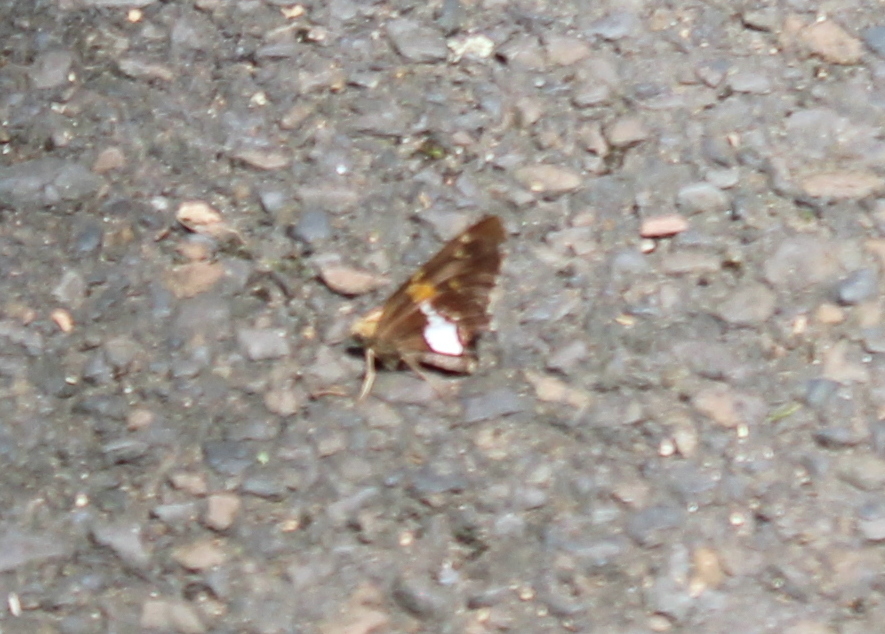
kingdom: Animalia
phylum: Arthropoda
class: Insecta
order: Lepidoptera
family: Hesperiidae
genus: Epargyreus
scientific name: Epargyreus clarus
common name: Silver-spotted skipper
